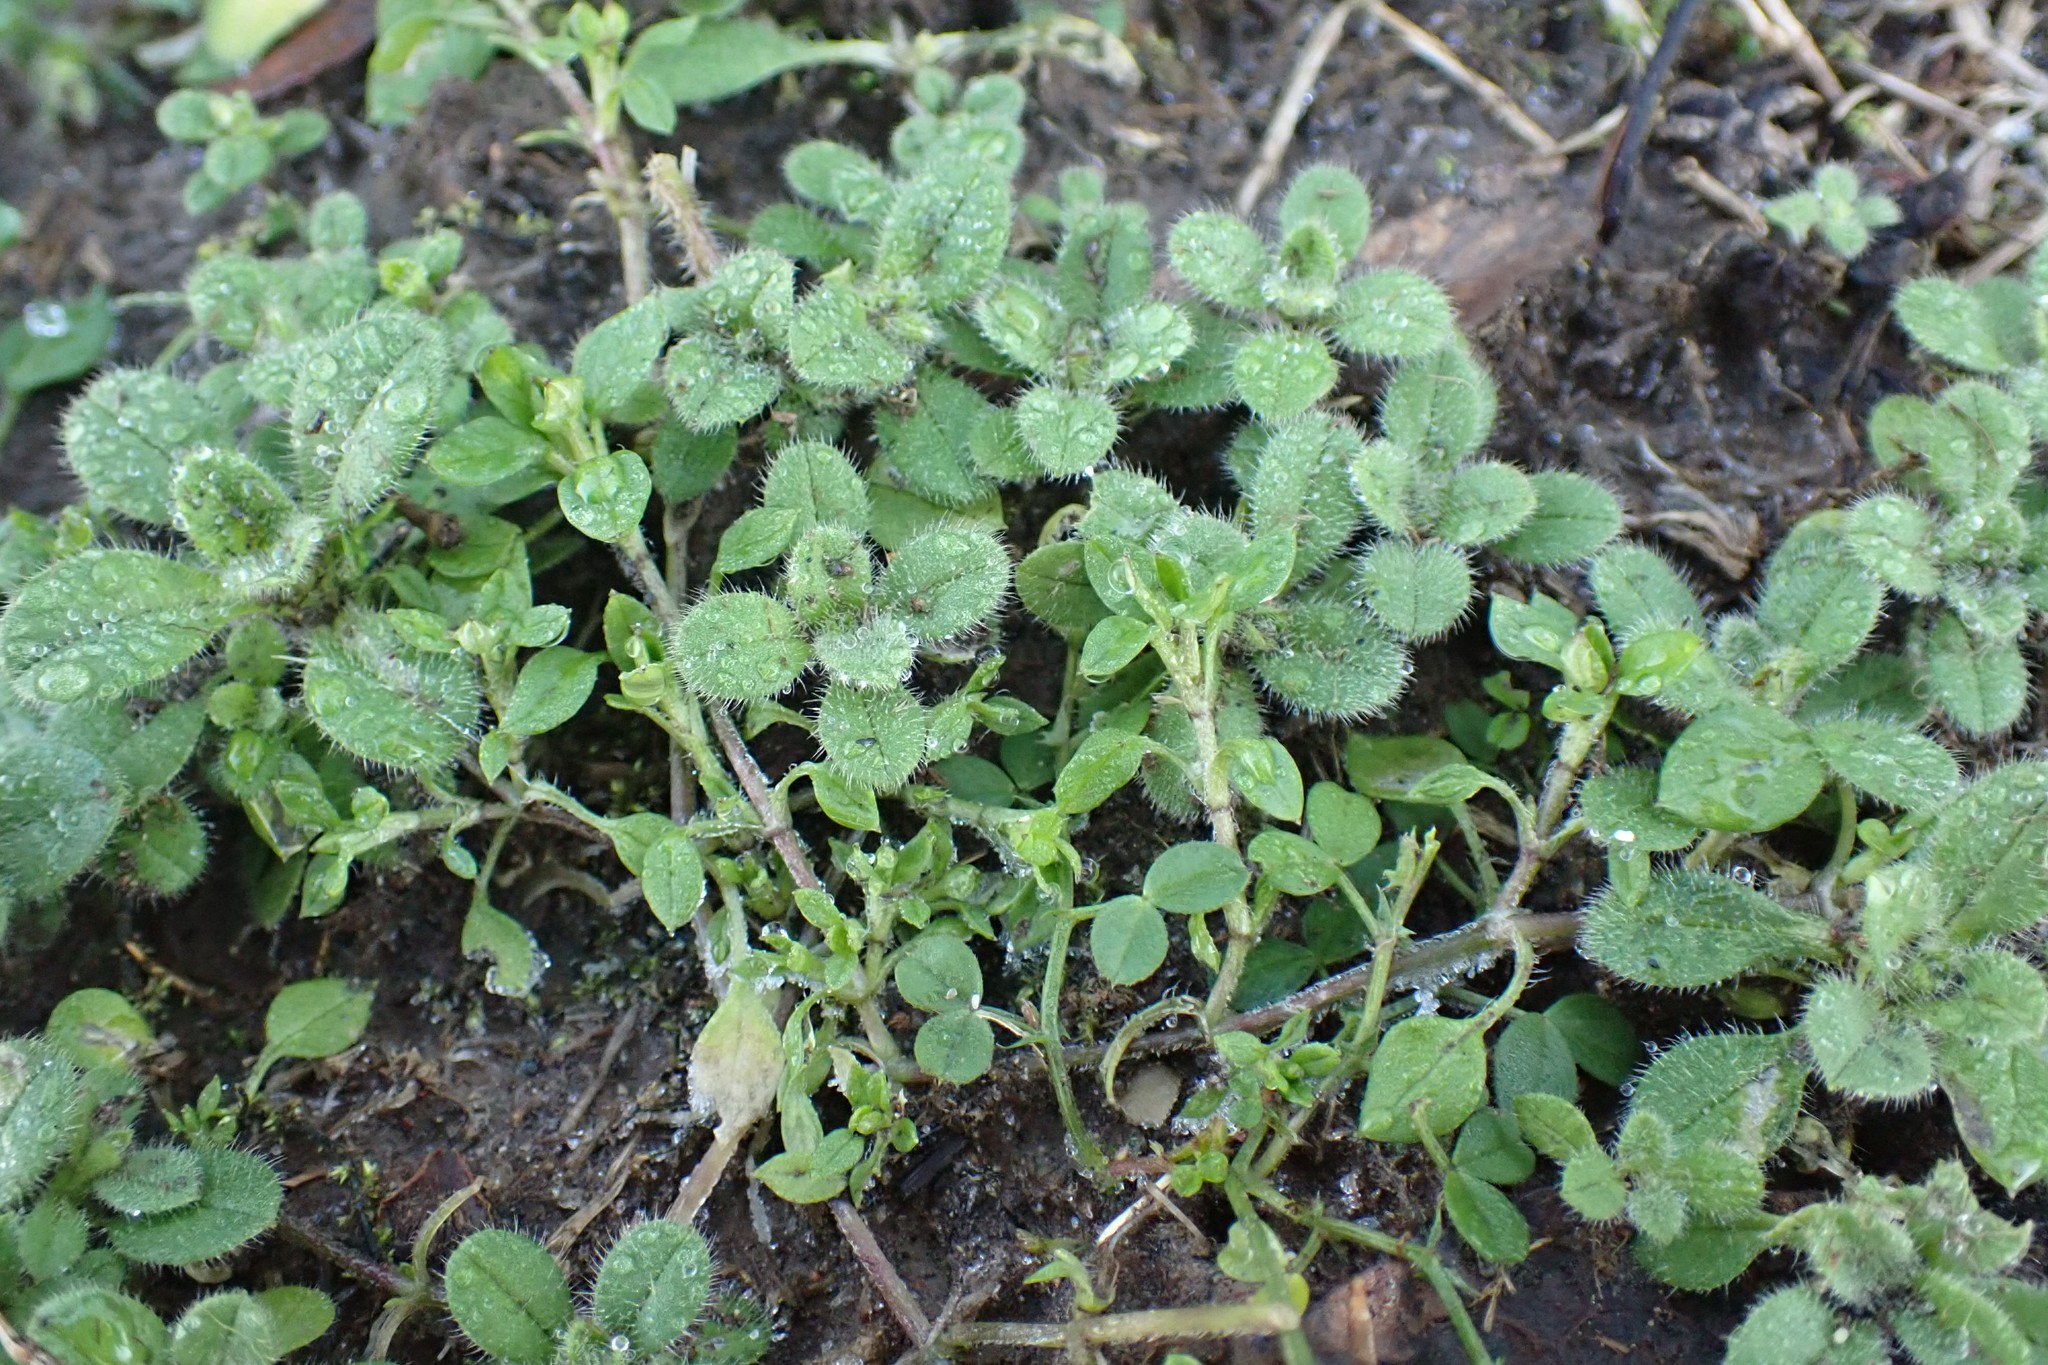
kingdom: Plantae
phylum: Tracheophyta
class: Magnoliopsida
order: Caryophyllales
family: Caryophyllaceae
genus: Cerastium
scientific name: Cerastium glomeratum
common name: Sticky chickweed
